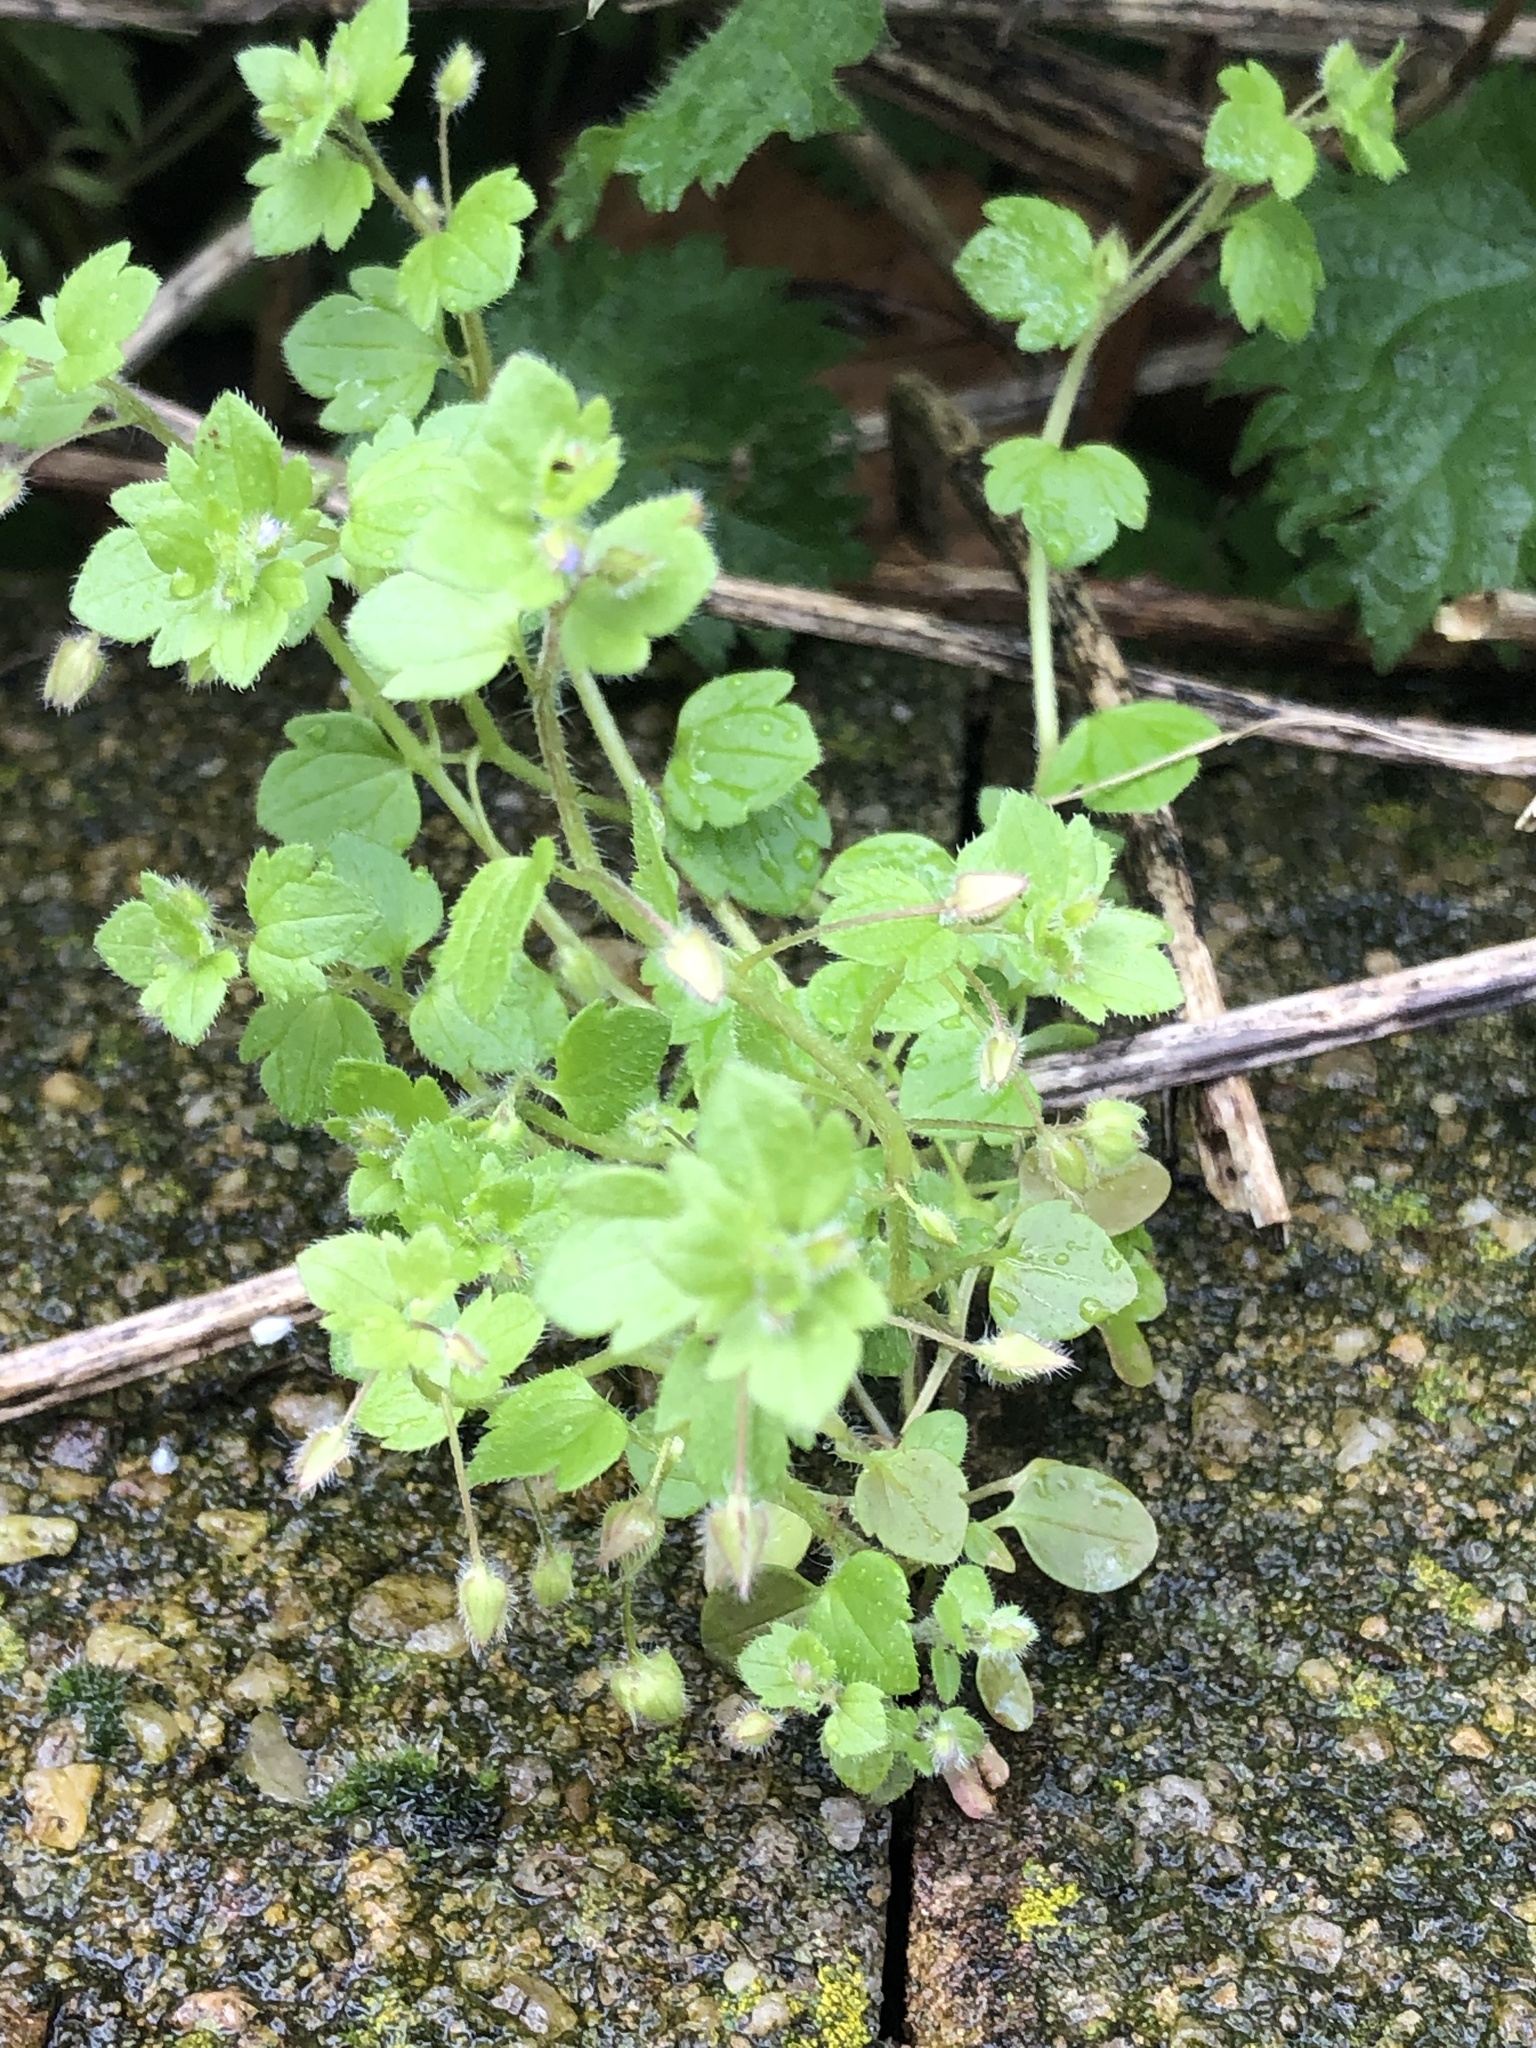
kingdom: Plantae
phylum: Tracheophyta
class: Magnoliopsida
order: Lamiales
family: Plantaginaceae
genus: Veronica
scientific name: Veronica sublobata
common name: False ivy-leaved speedwell
